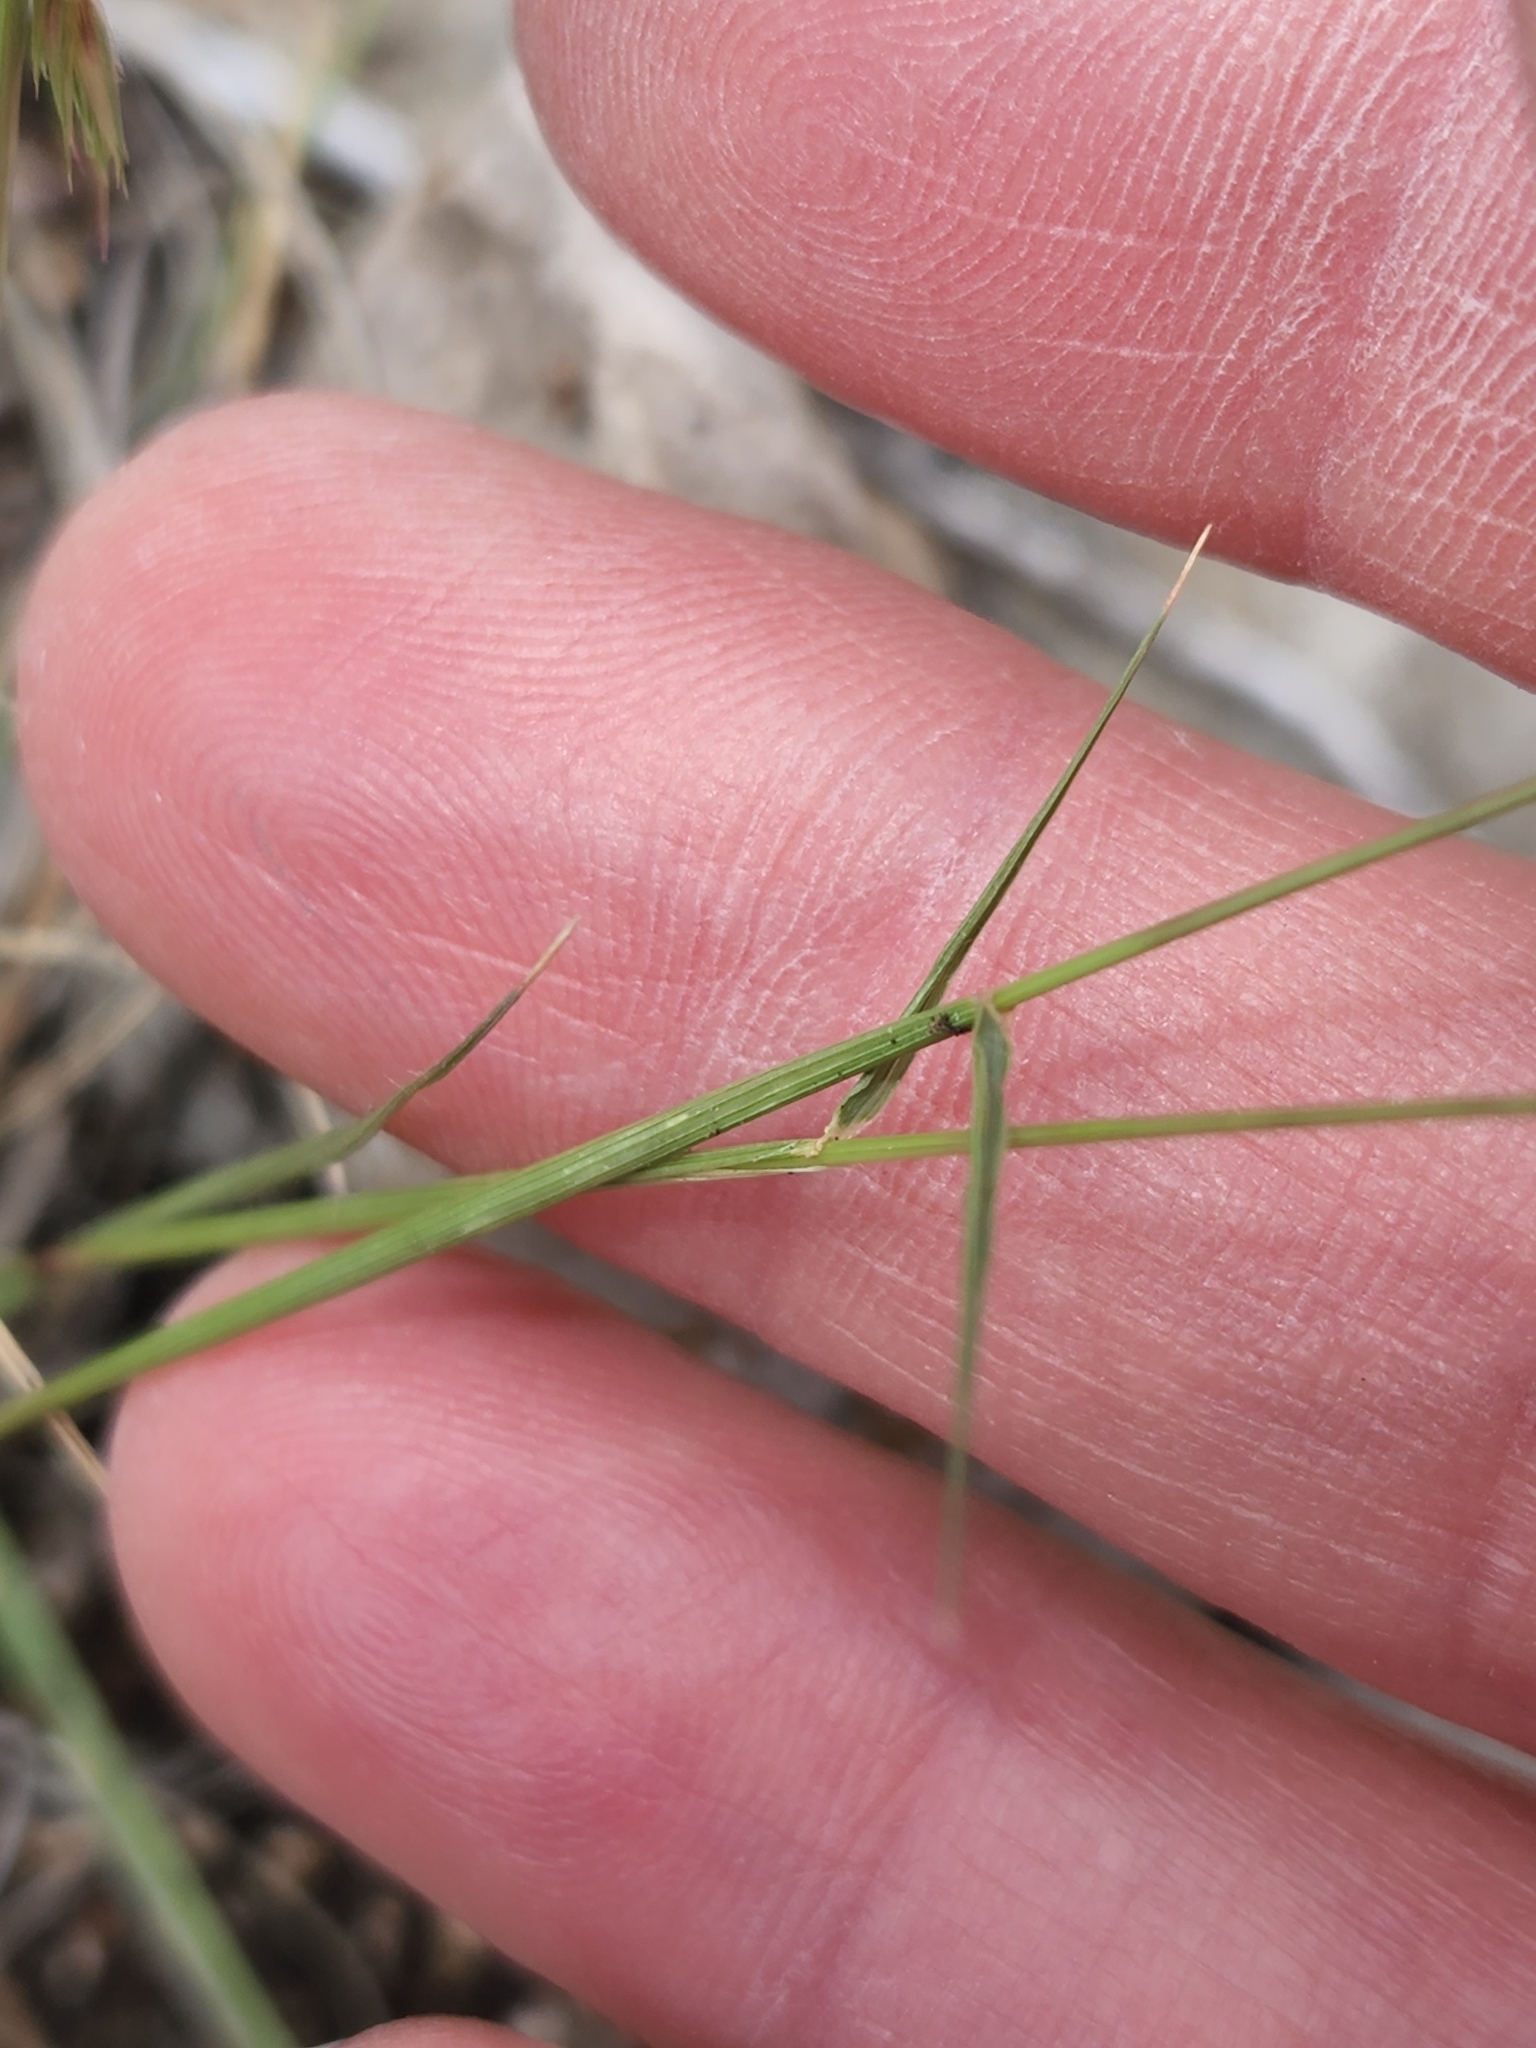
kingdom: Plantae
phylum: Tracheophyta
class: Liliopsida
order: Poales
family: Poaceae
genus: Bouteloua
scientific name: Bouteloua rigidiseta
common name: Texas grama
